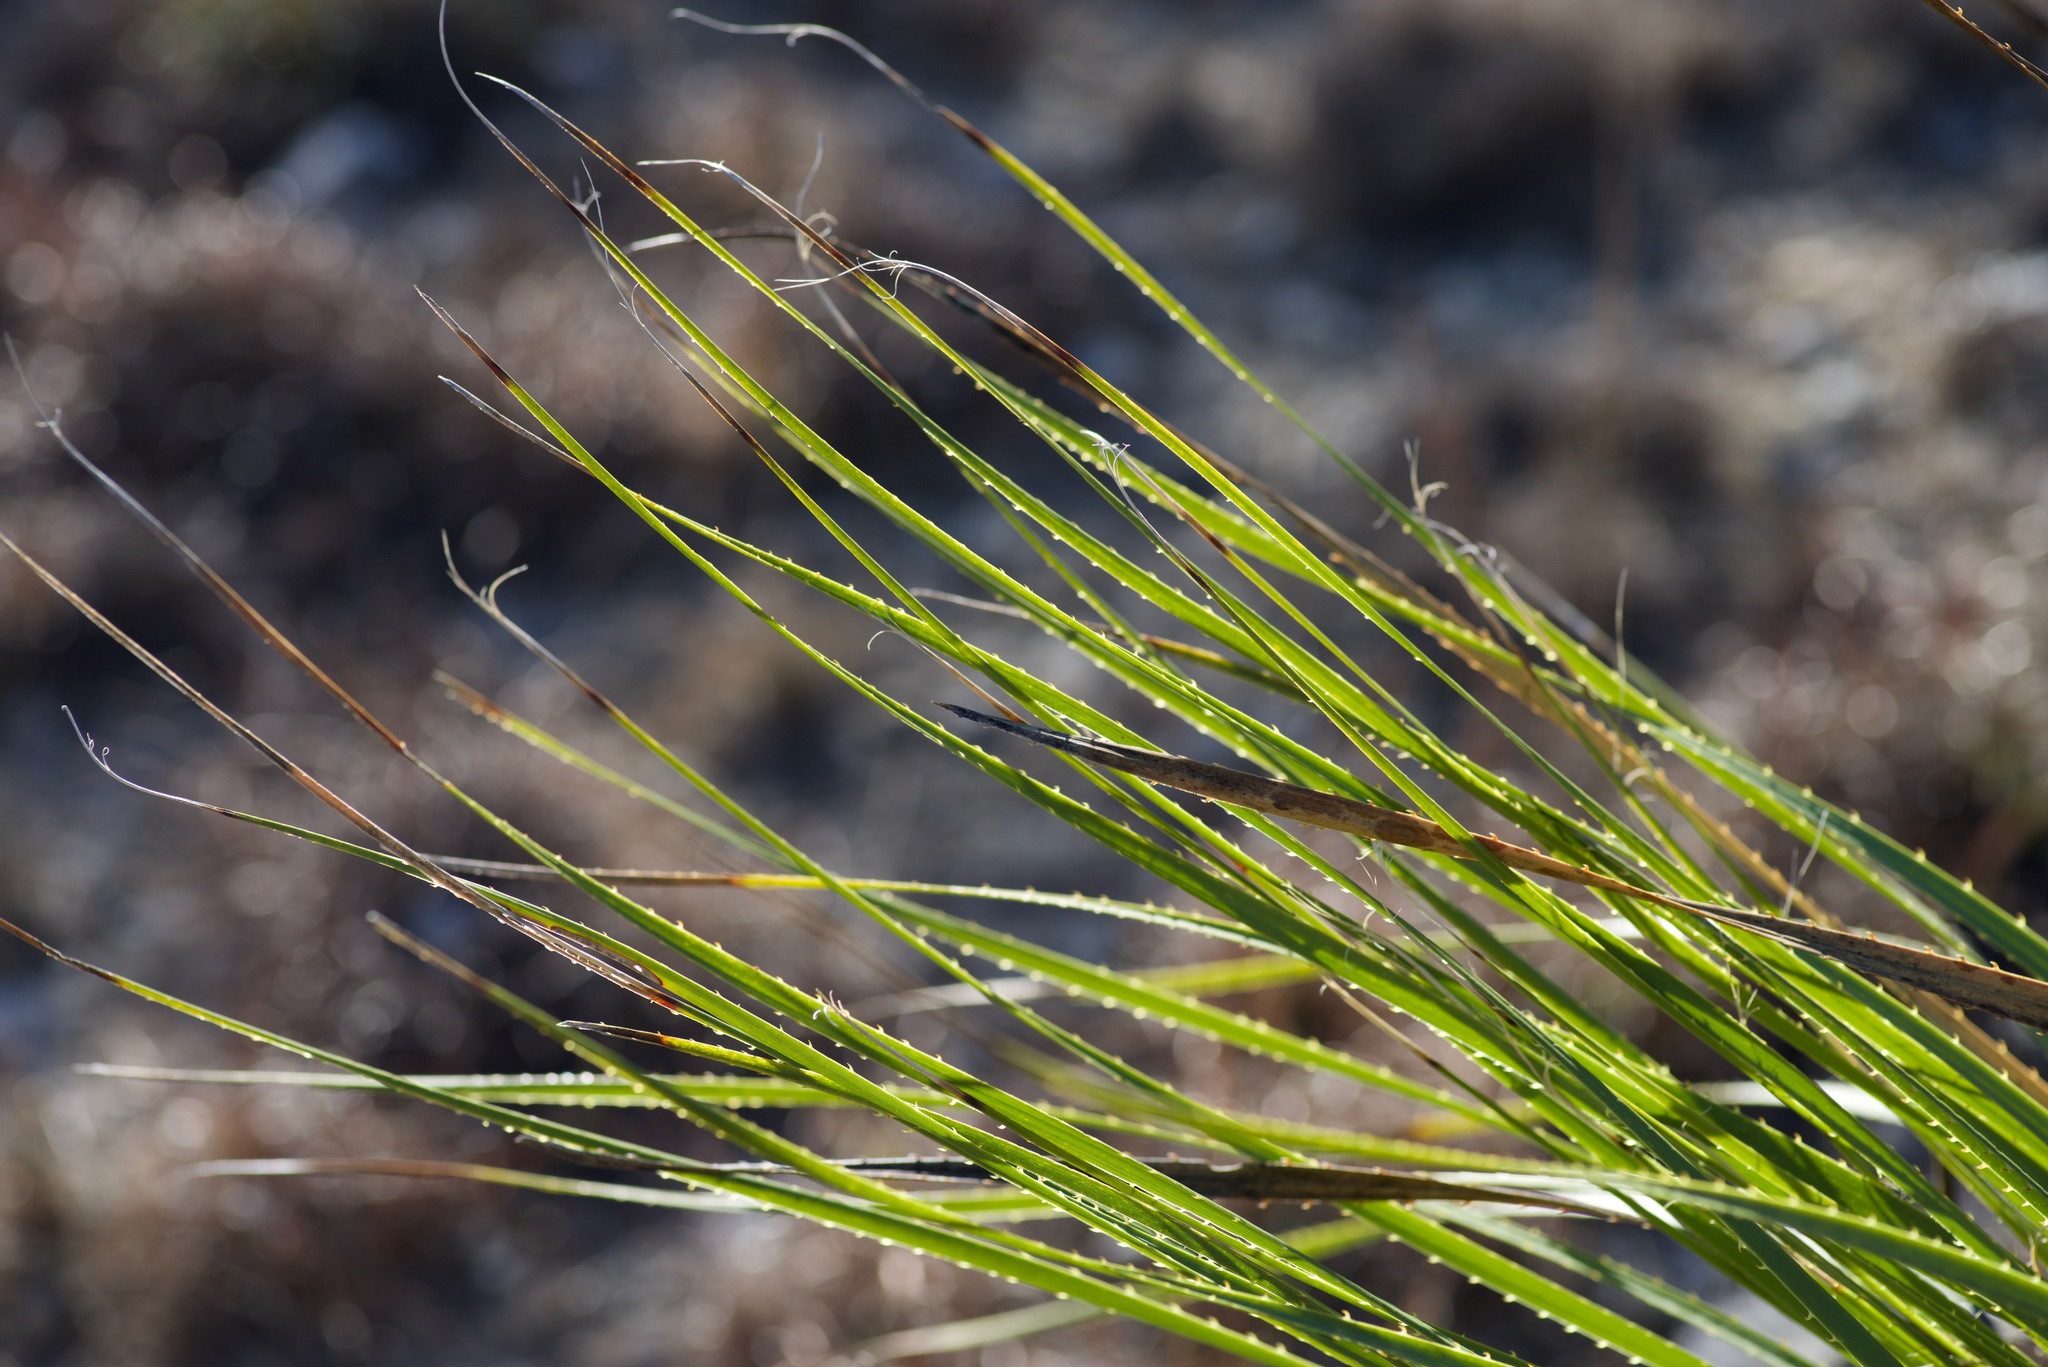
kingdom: Plantae
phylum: Tracheophyta
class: Liliopsida
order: Asparagales
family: Asparagaceae
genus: Dasylirion
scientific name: Dasylirion texanum
